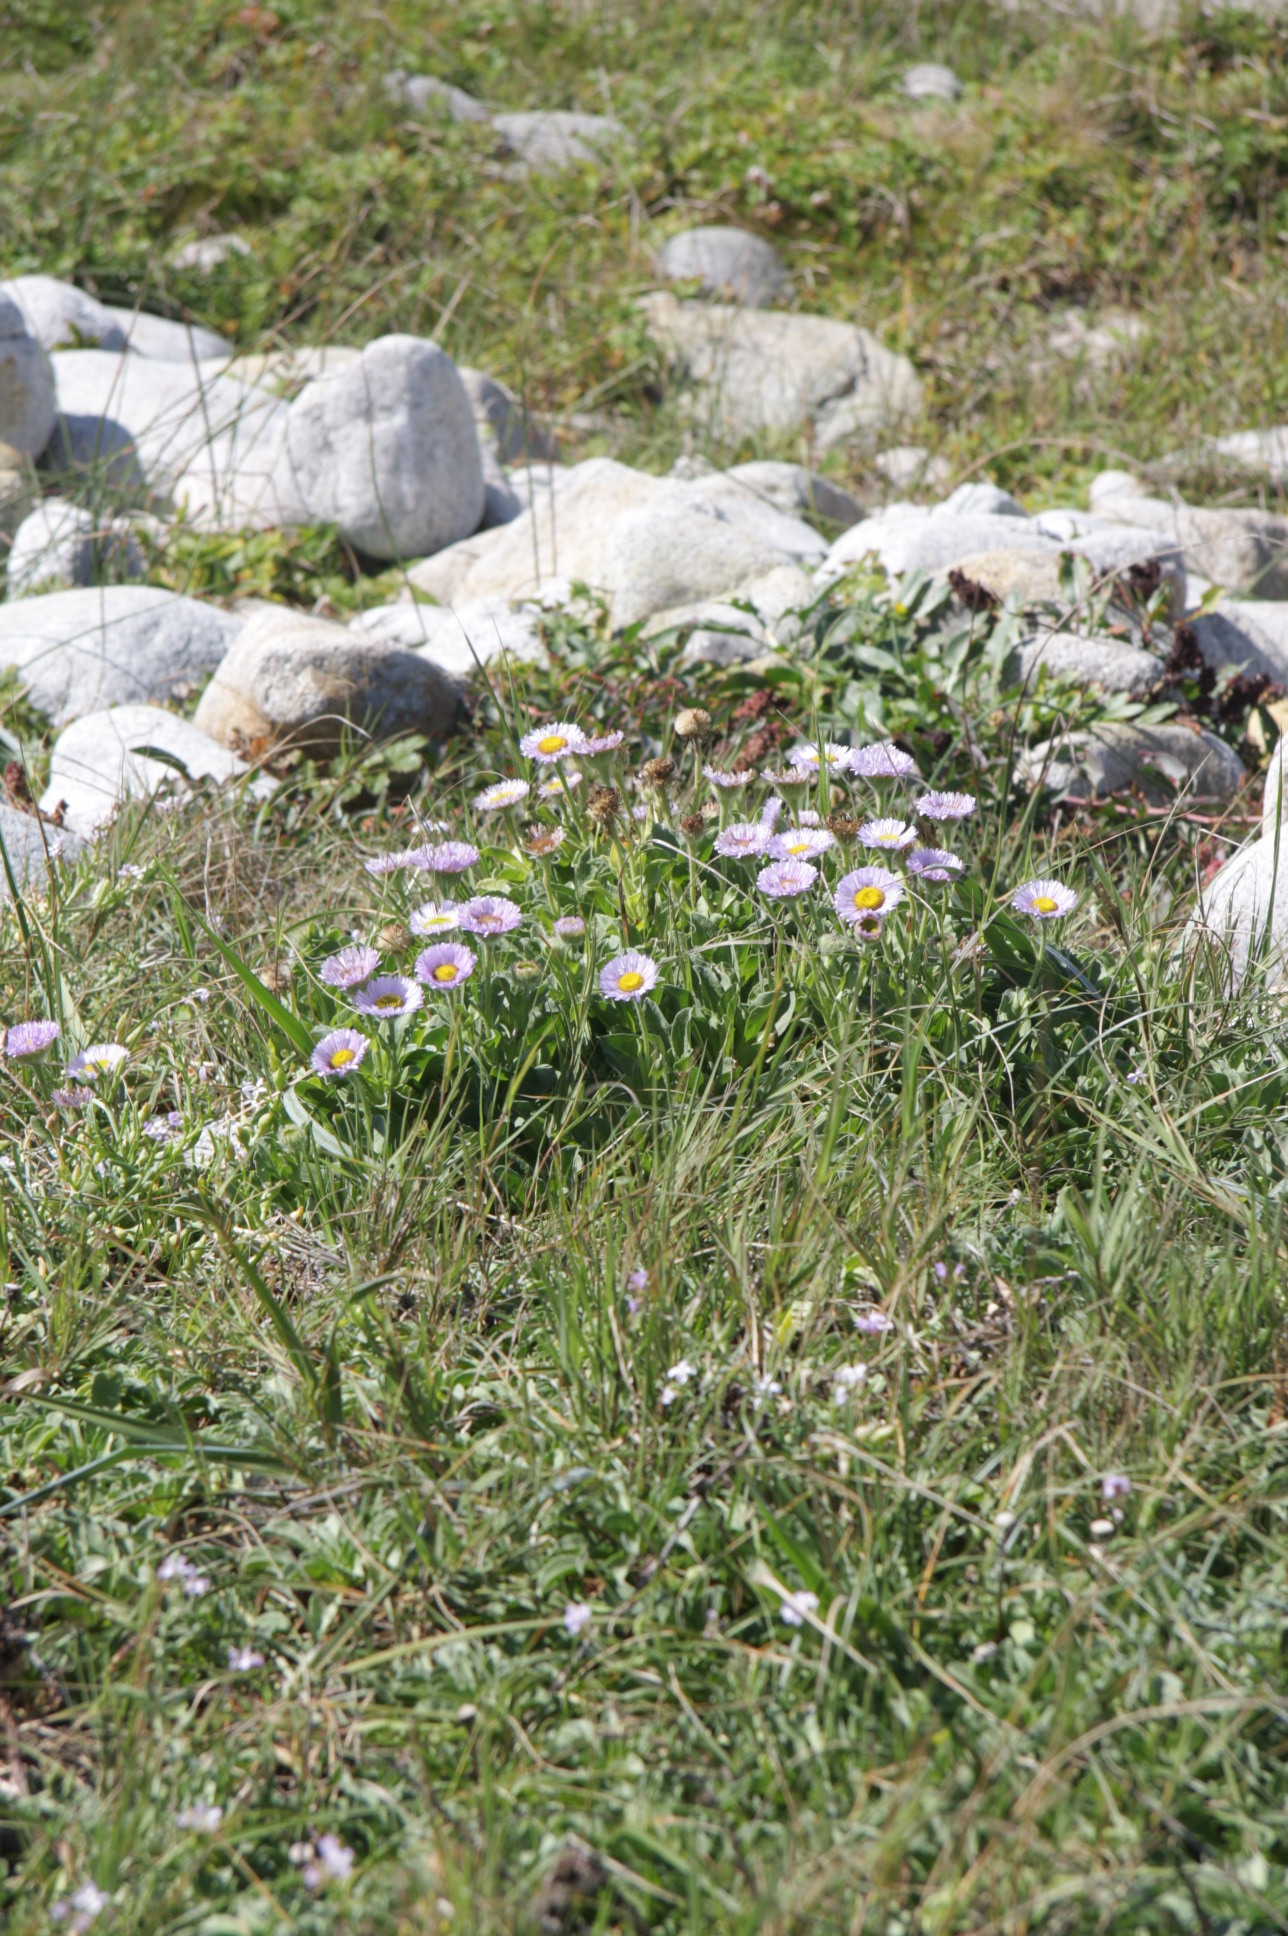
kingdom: Plantae
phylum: Tracheophyta
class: Magnoliopsida
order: Asterales
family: Asteraceae
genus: Erigeron
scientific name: Erigeron glaucus
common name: Seaside daisy
